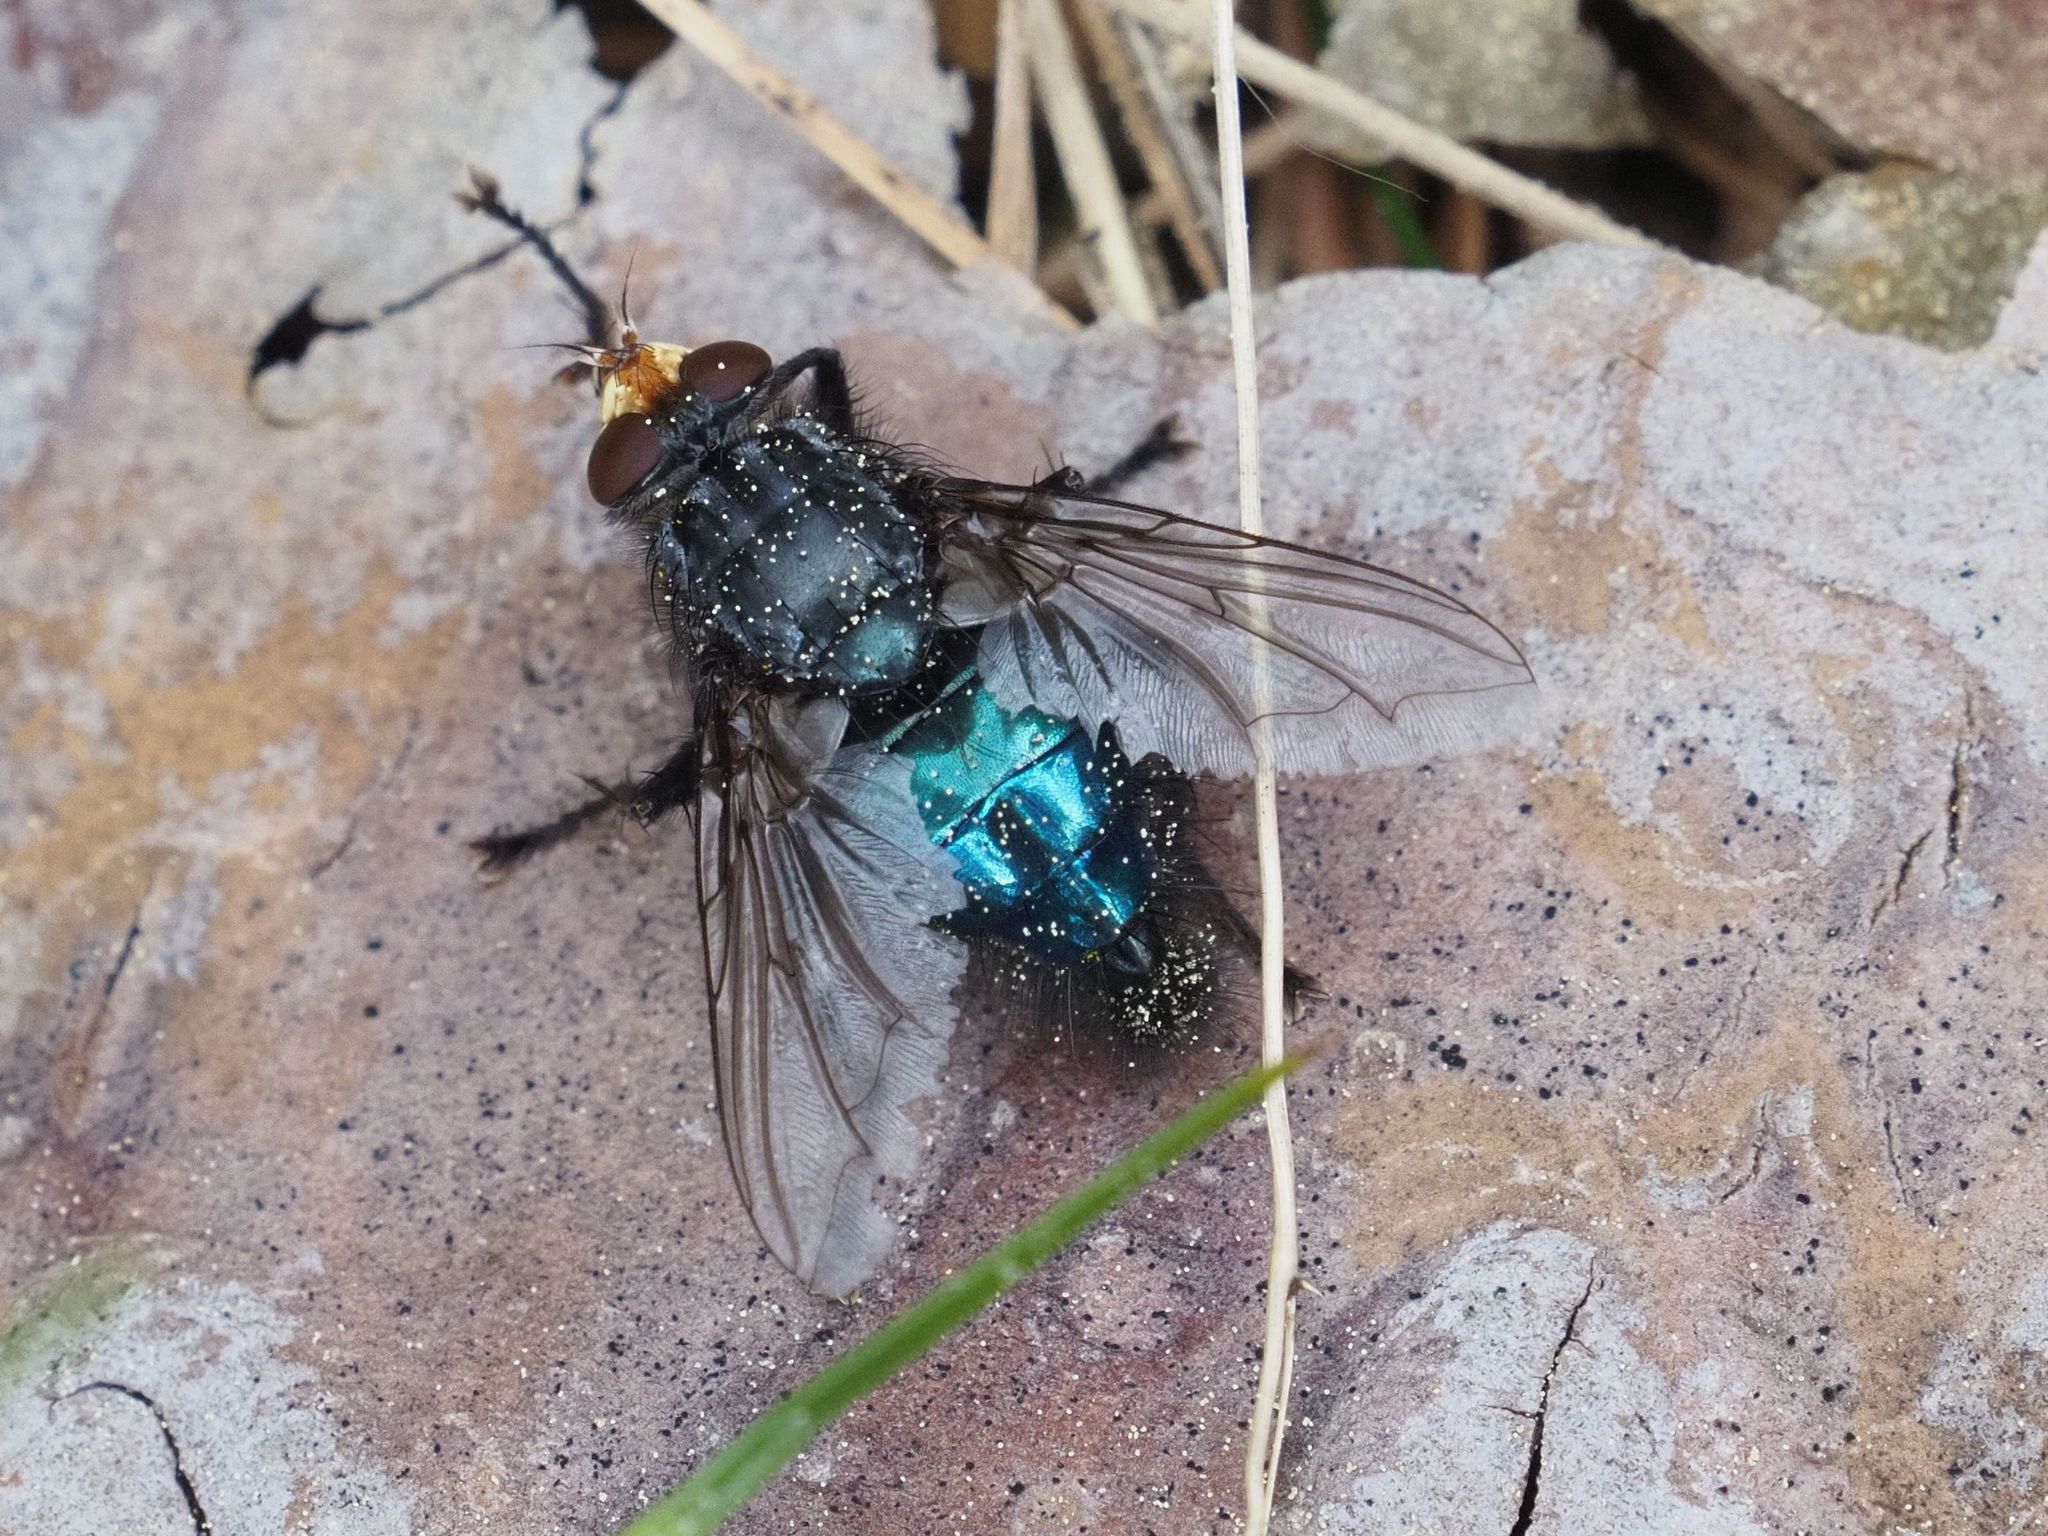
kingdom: Animalia
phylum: Arthropoda
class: Insecta
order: Diptera
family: Calliphoridae
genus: Cynomya
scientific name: Cynomya mortuorum
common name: Bluebottle blow fly
